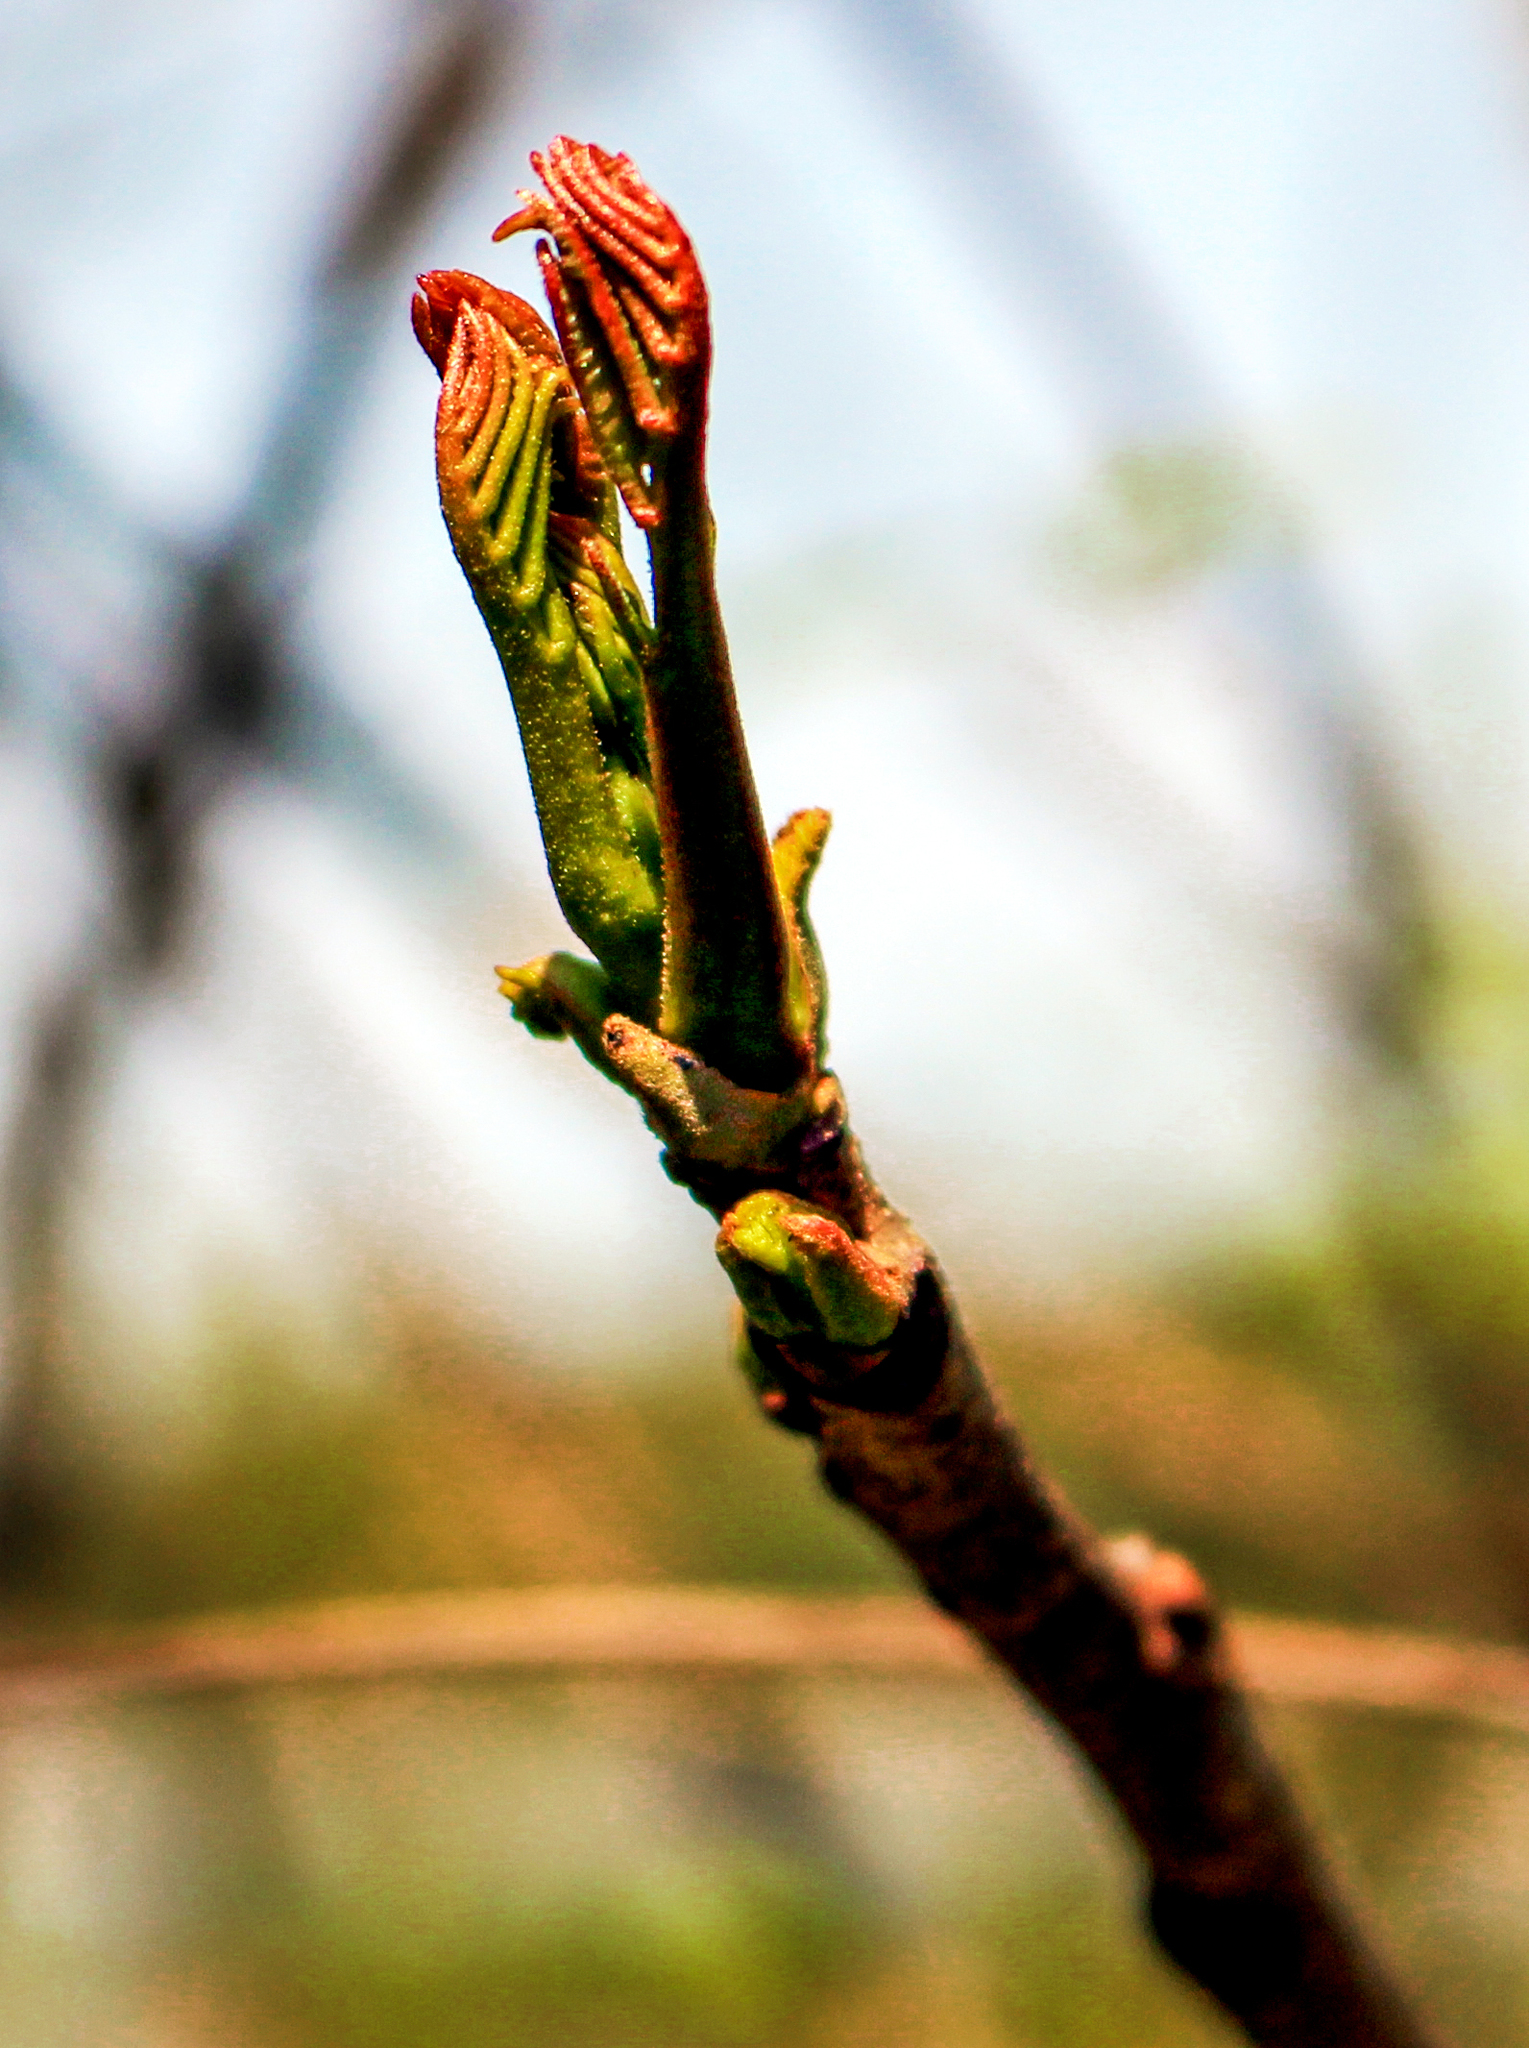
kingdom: Plantae
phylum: Tracheophyta
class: Magnoliopsida
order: Sapindales
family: Anacardiaceae
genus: Toxicodendron
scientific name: Toxicodendron vernix
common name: Poison sumac
